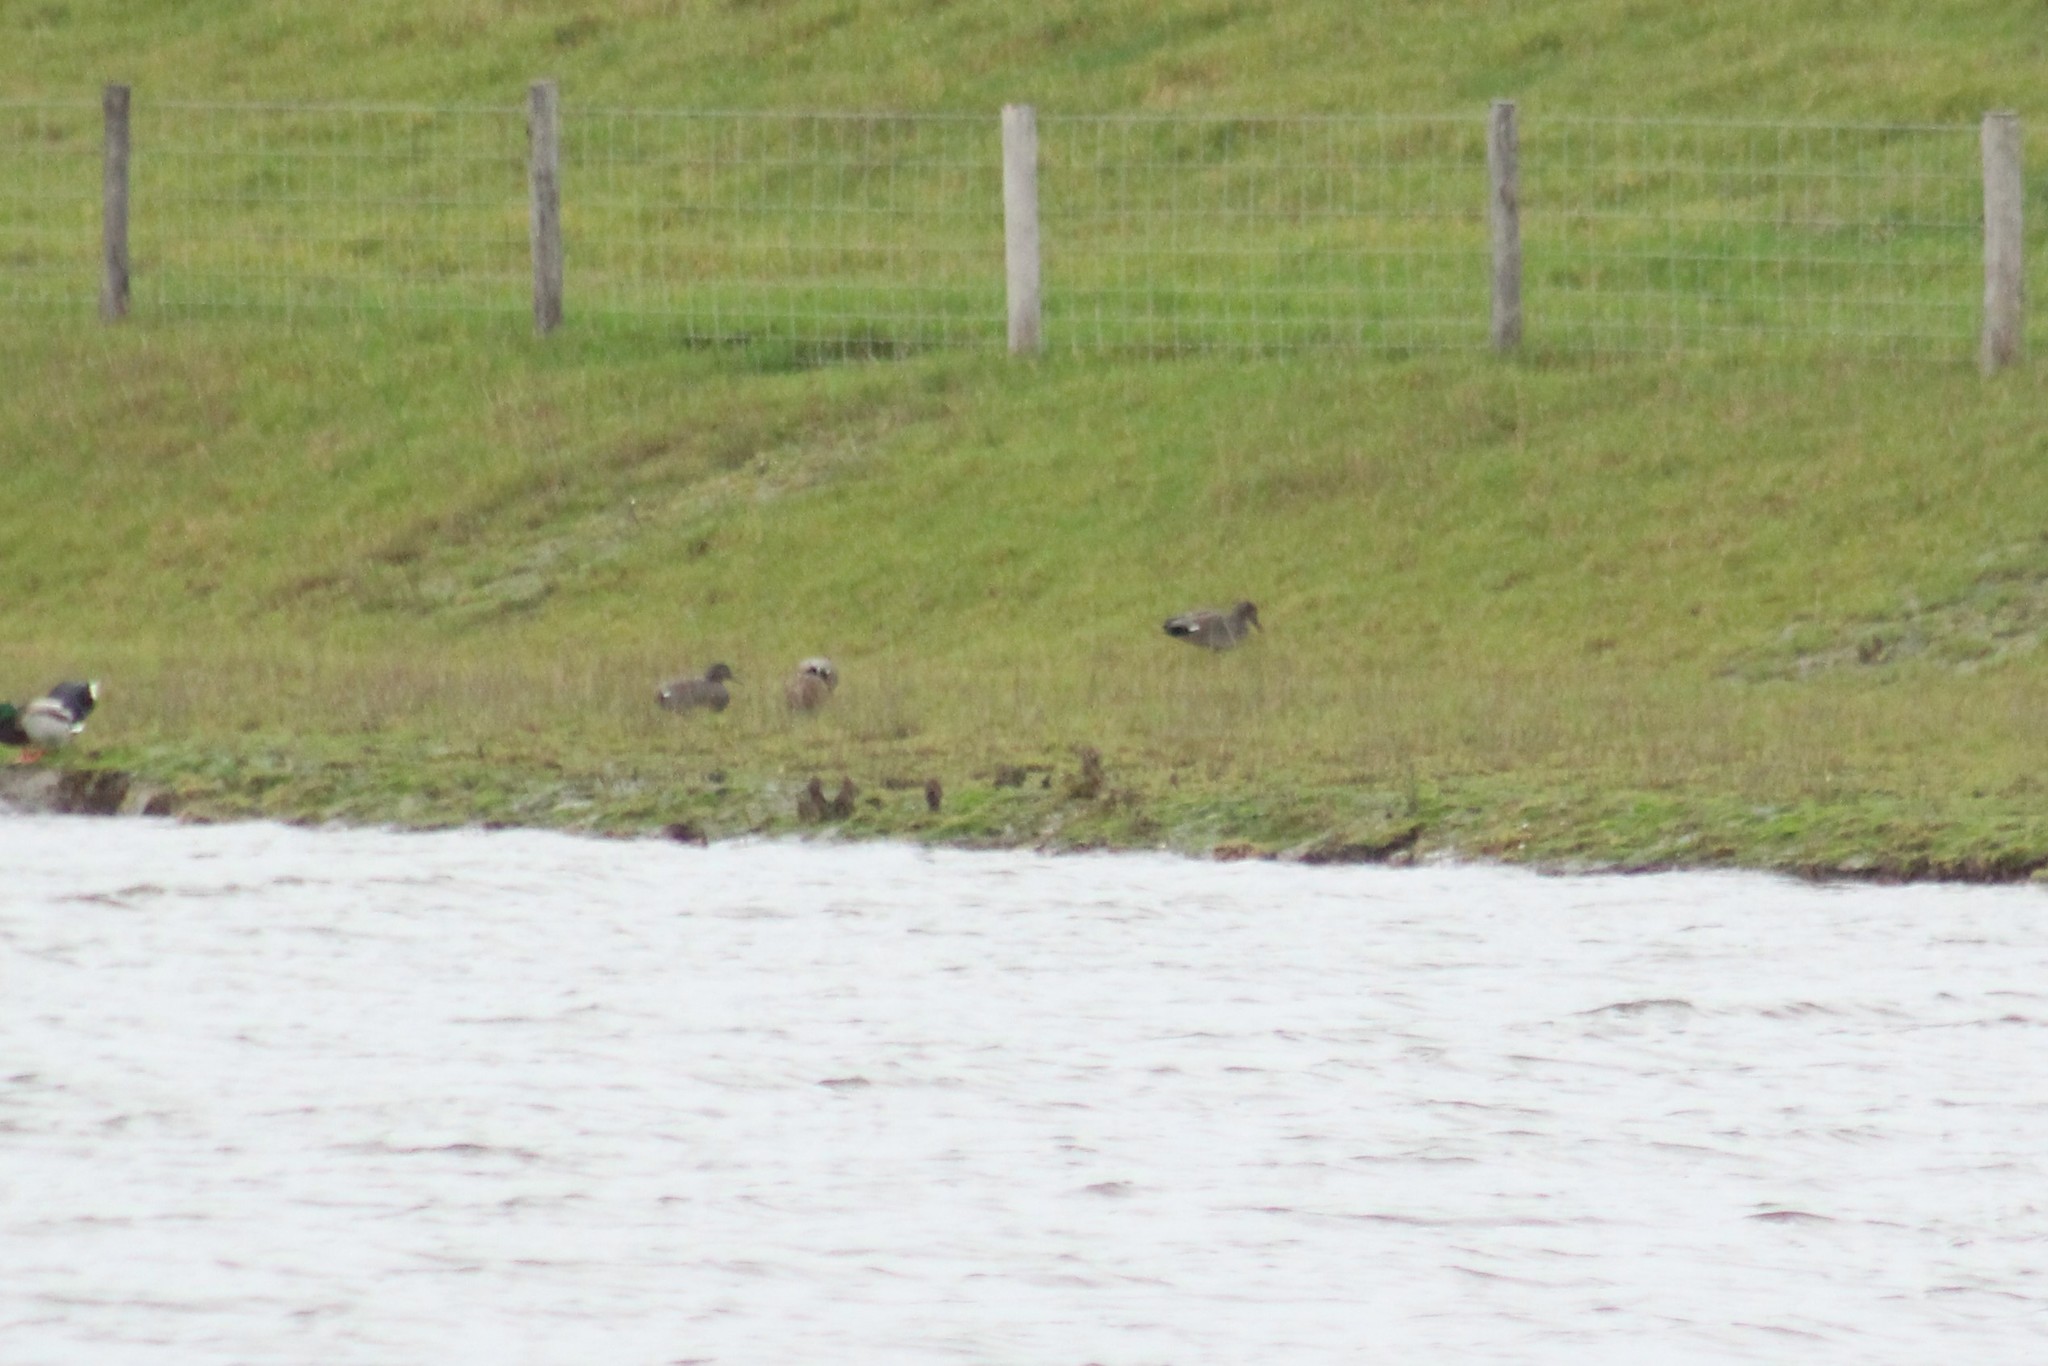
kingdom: Animalia
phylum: Chordata
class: Aves
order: Anseriformes
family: Anatidae
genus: Mareca
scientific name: Mareca strepera
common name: Gadwall
